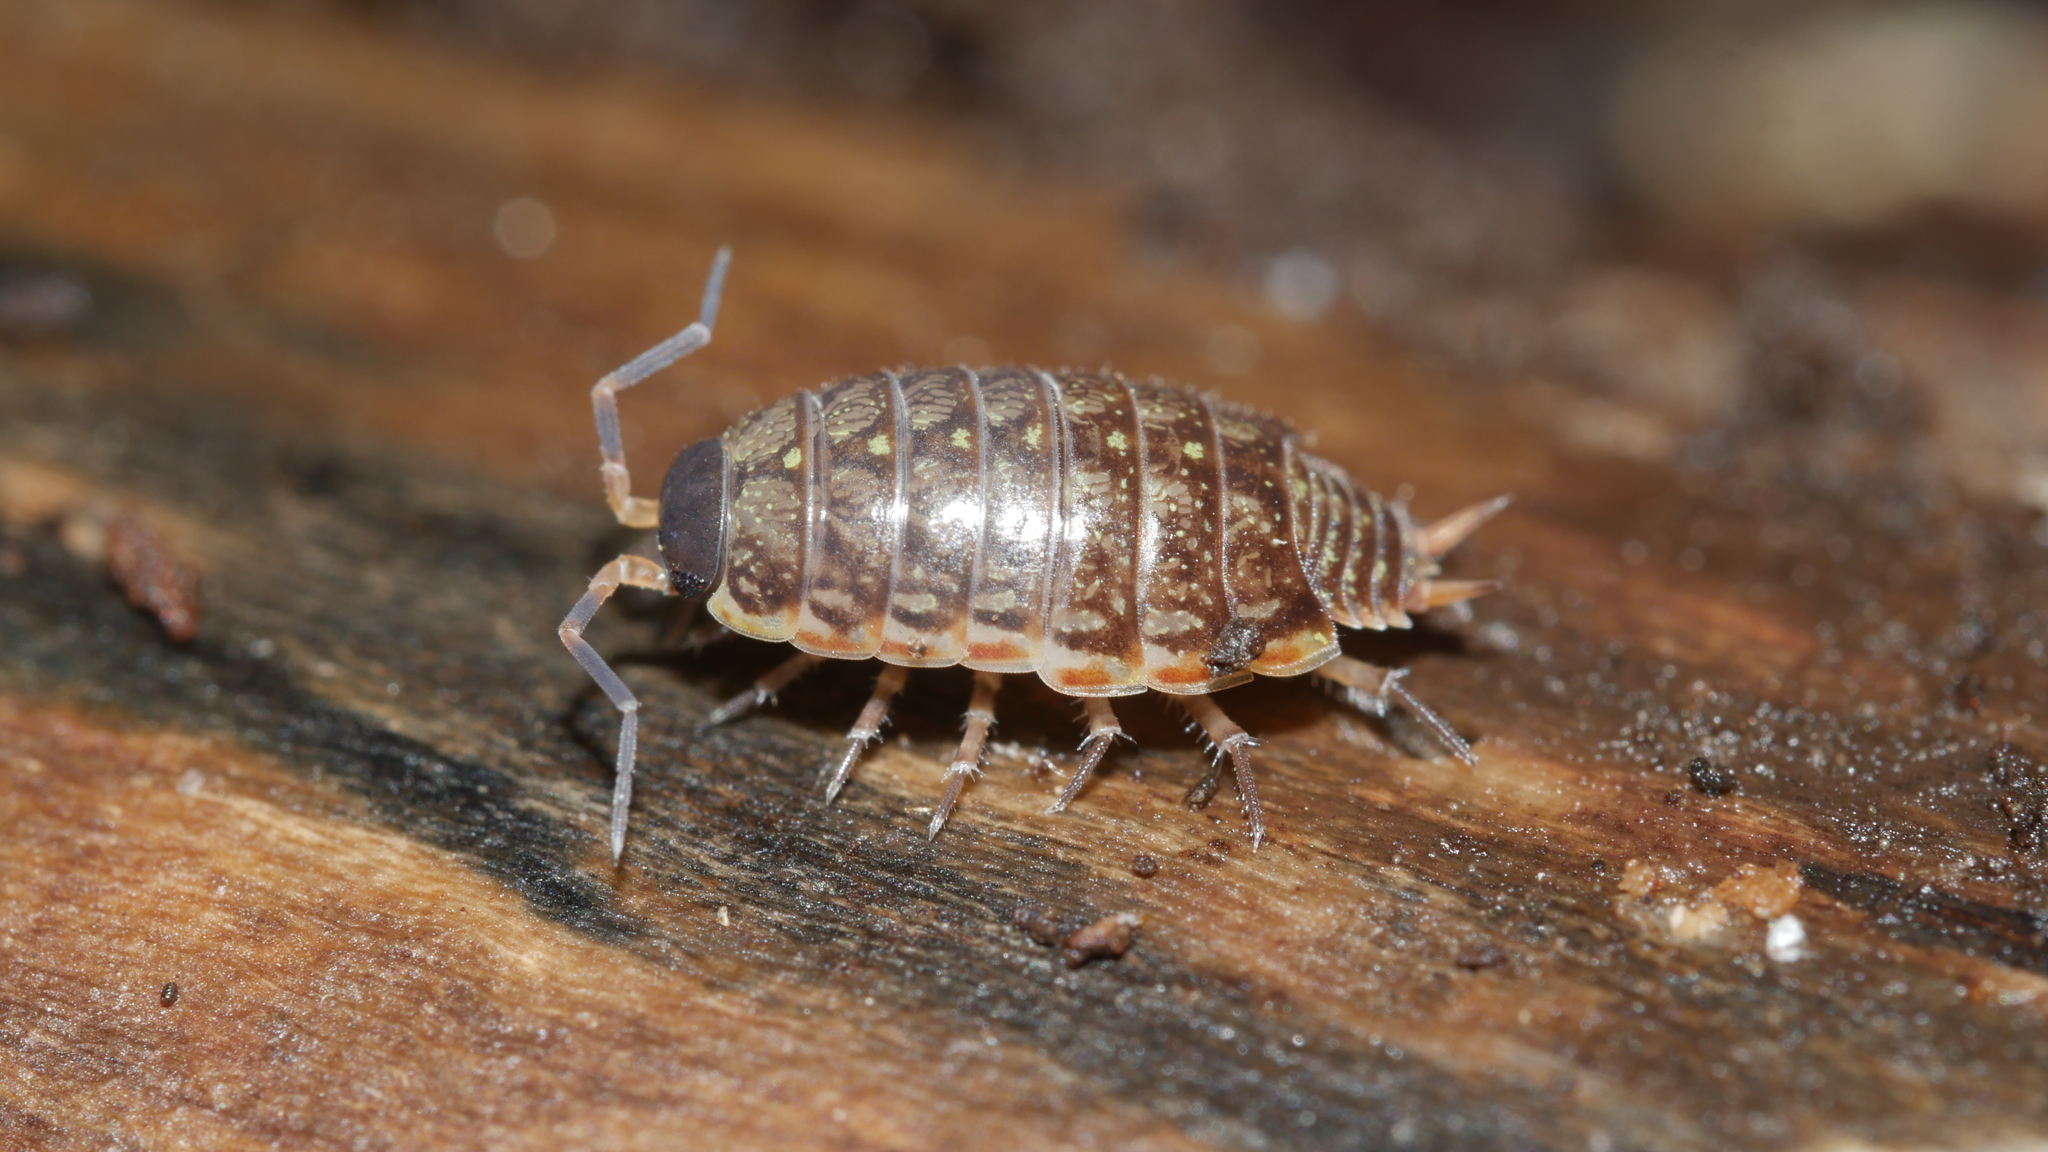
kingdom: Animalia
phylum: Arthropoda
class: Malacostraca
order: Isopoda
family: Philosciidae
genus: Philoscia
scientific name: Philoscia muscorum
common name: Common striped woodlouse
